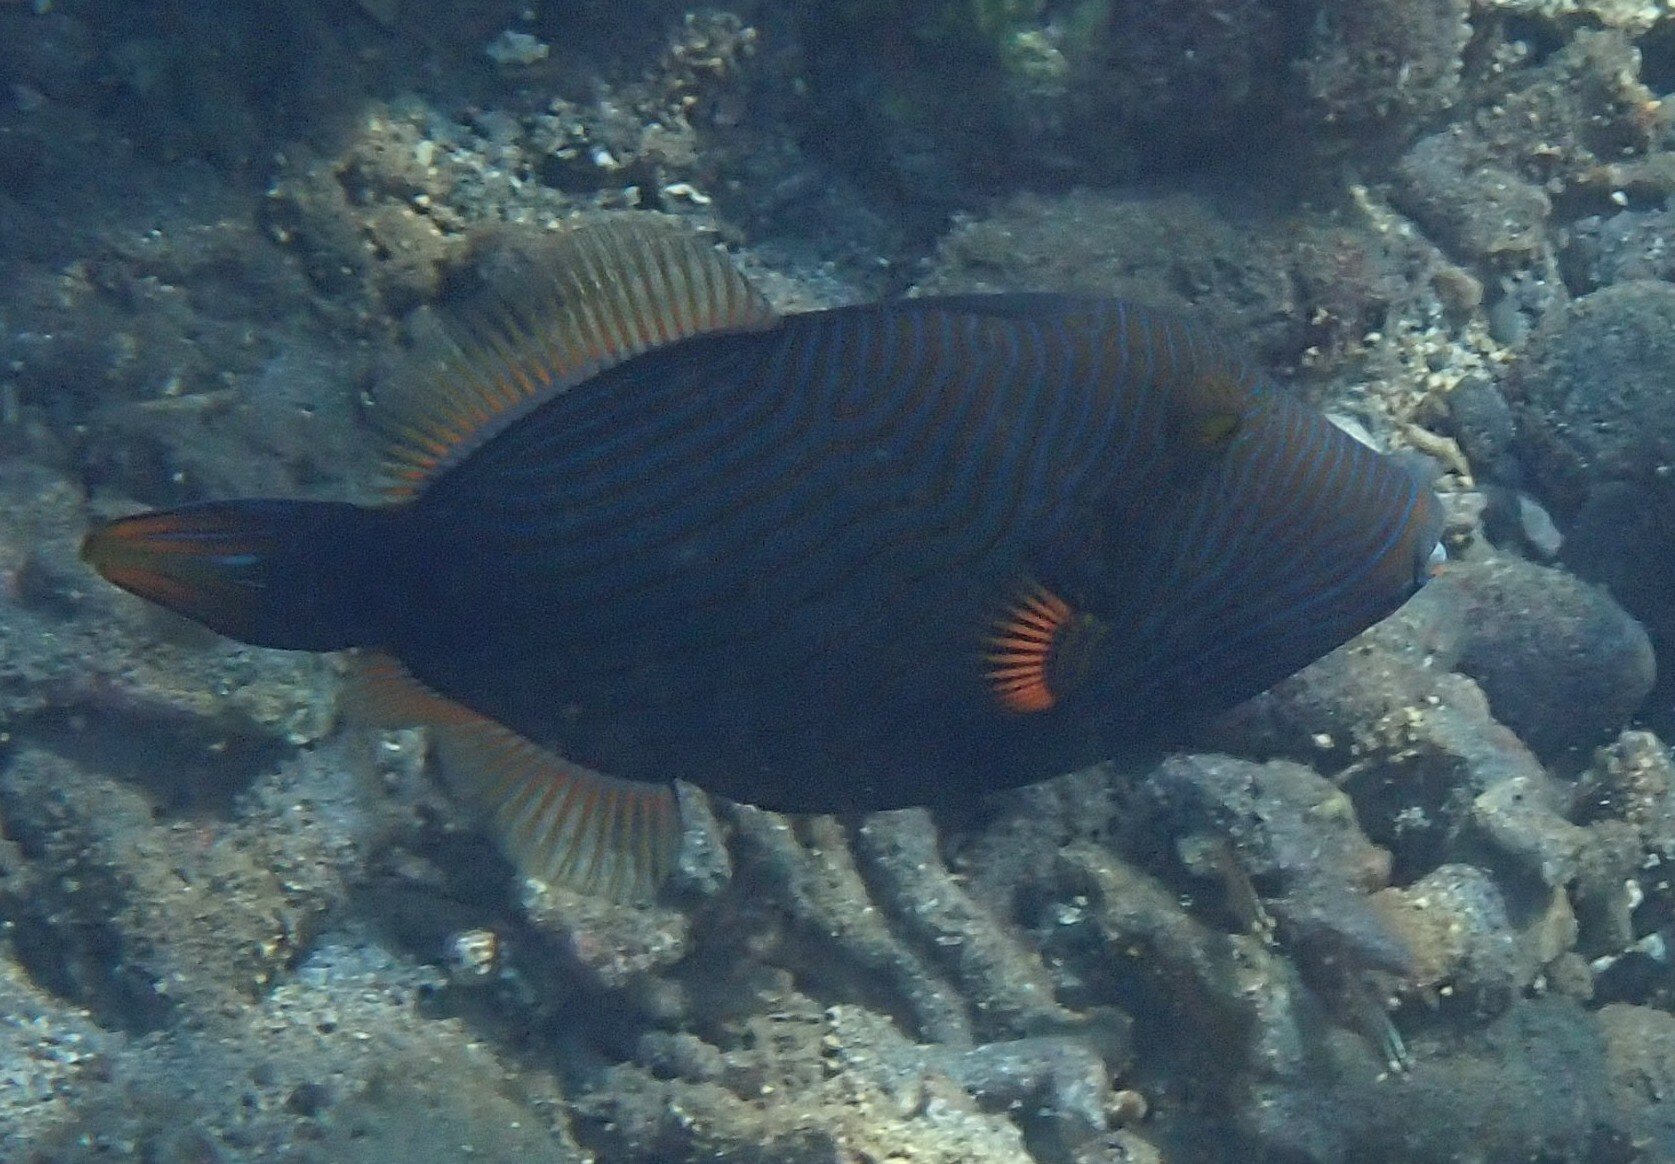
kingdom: Animalia
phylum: Chordata
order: Tetraodontiformes
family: Balistidae
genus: Balistapus
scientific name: Balistapus undulatus
